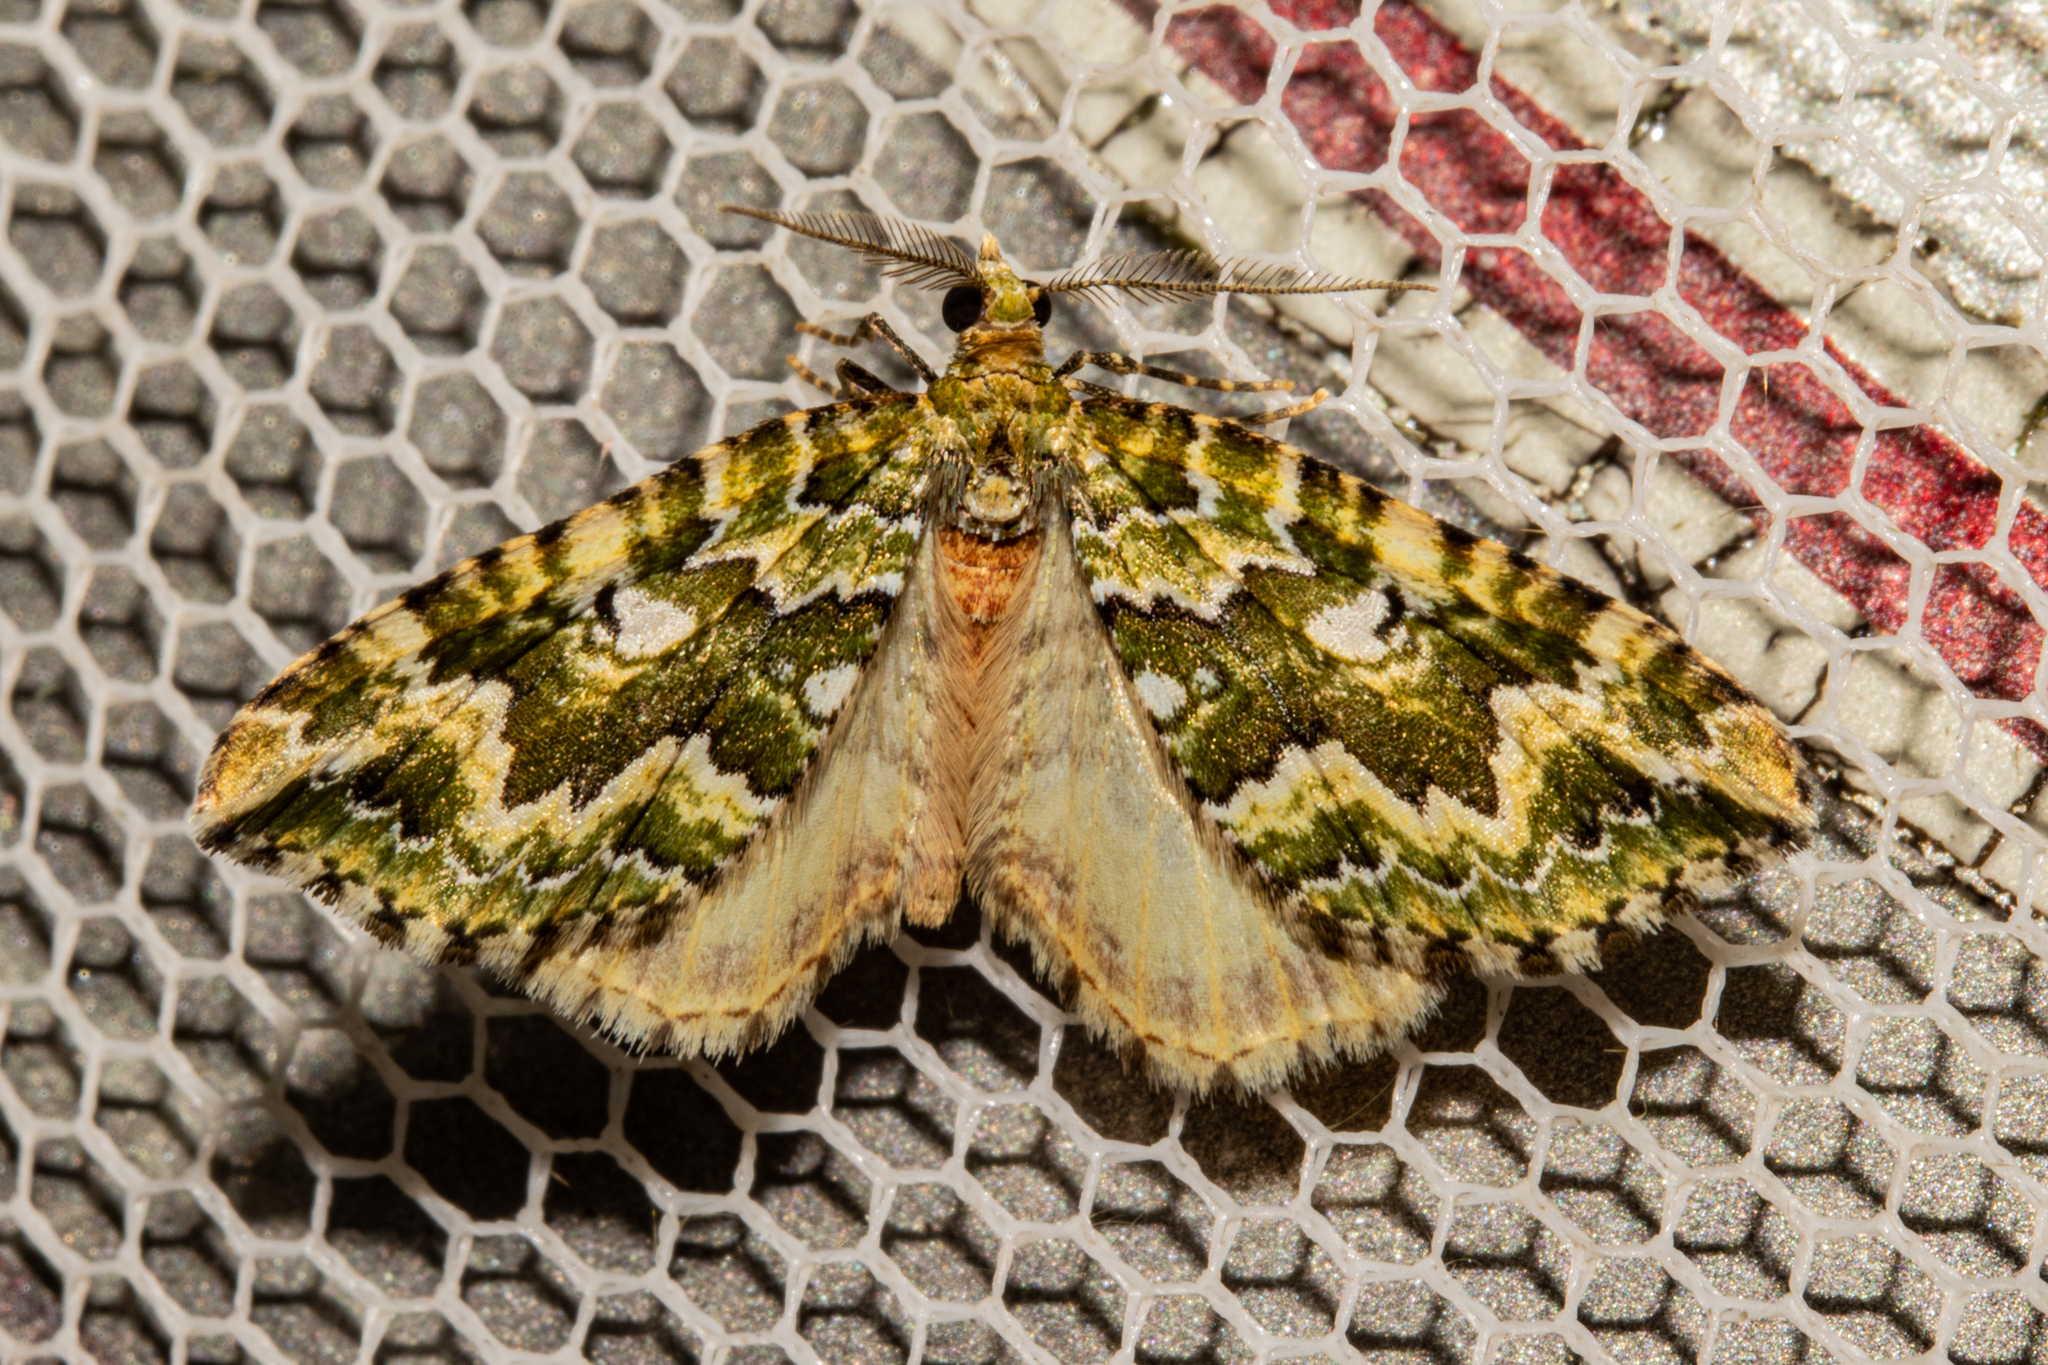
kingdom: Animalia
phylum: Arthropoda
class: Insecta
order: Lepidoptera
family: Geometridae
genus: Asaphodes
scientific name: Asaphodes beata
